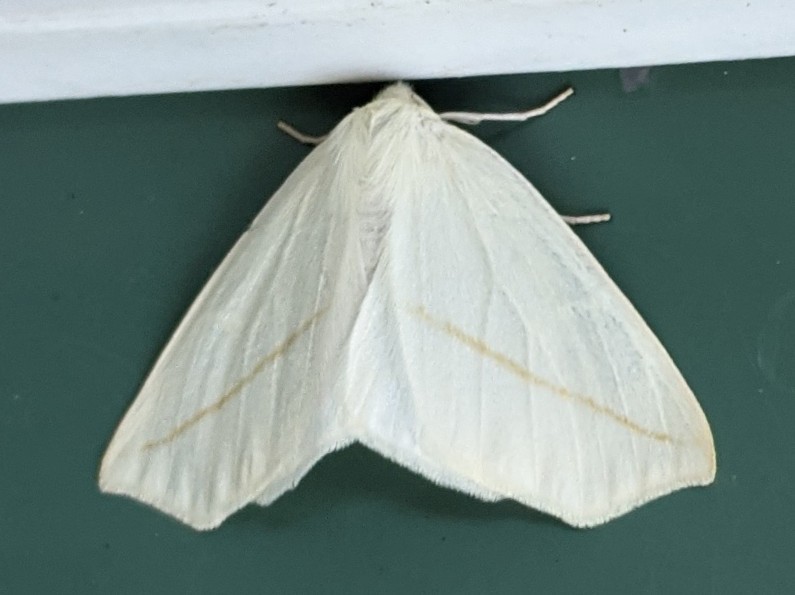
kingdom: Animalia
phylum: Arthropoda
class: Insecta
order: Lepidoptera
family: Geometridae
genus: Tetracis
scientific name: Tetracis cachexiata
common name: White slant-line
